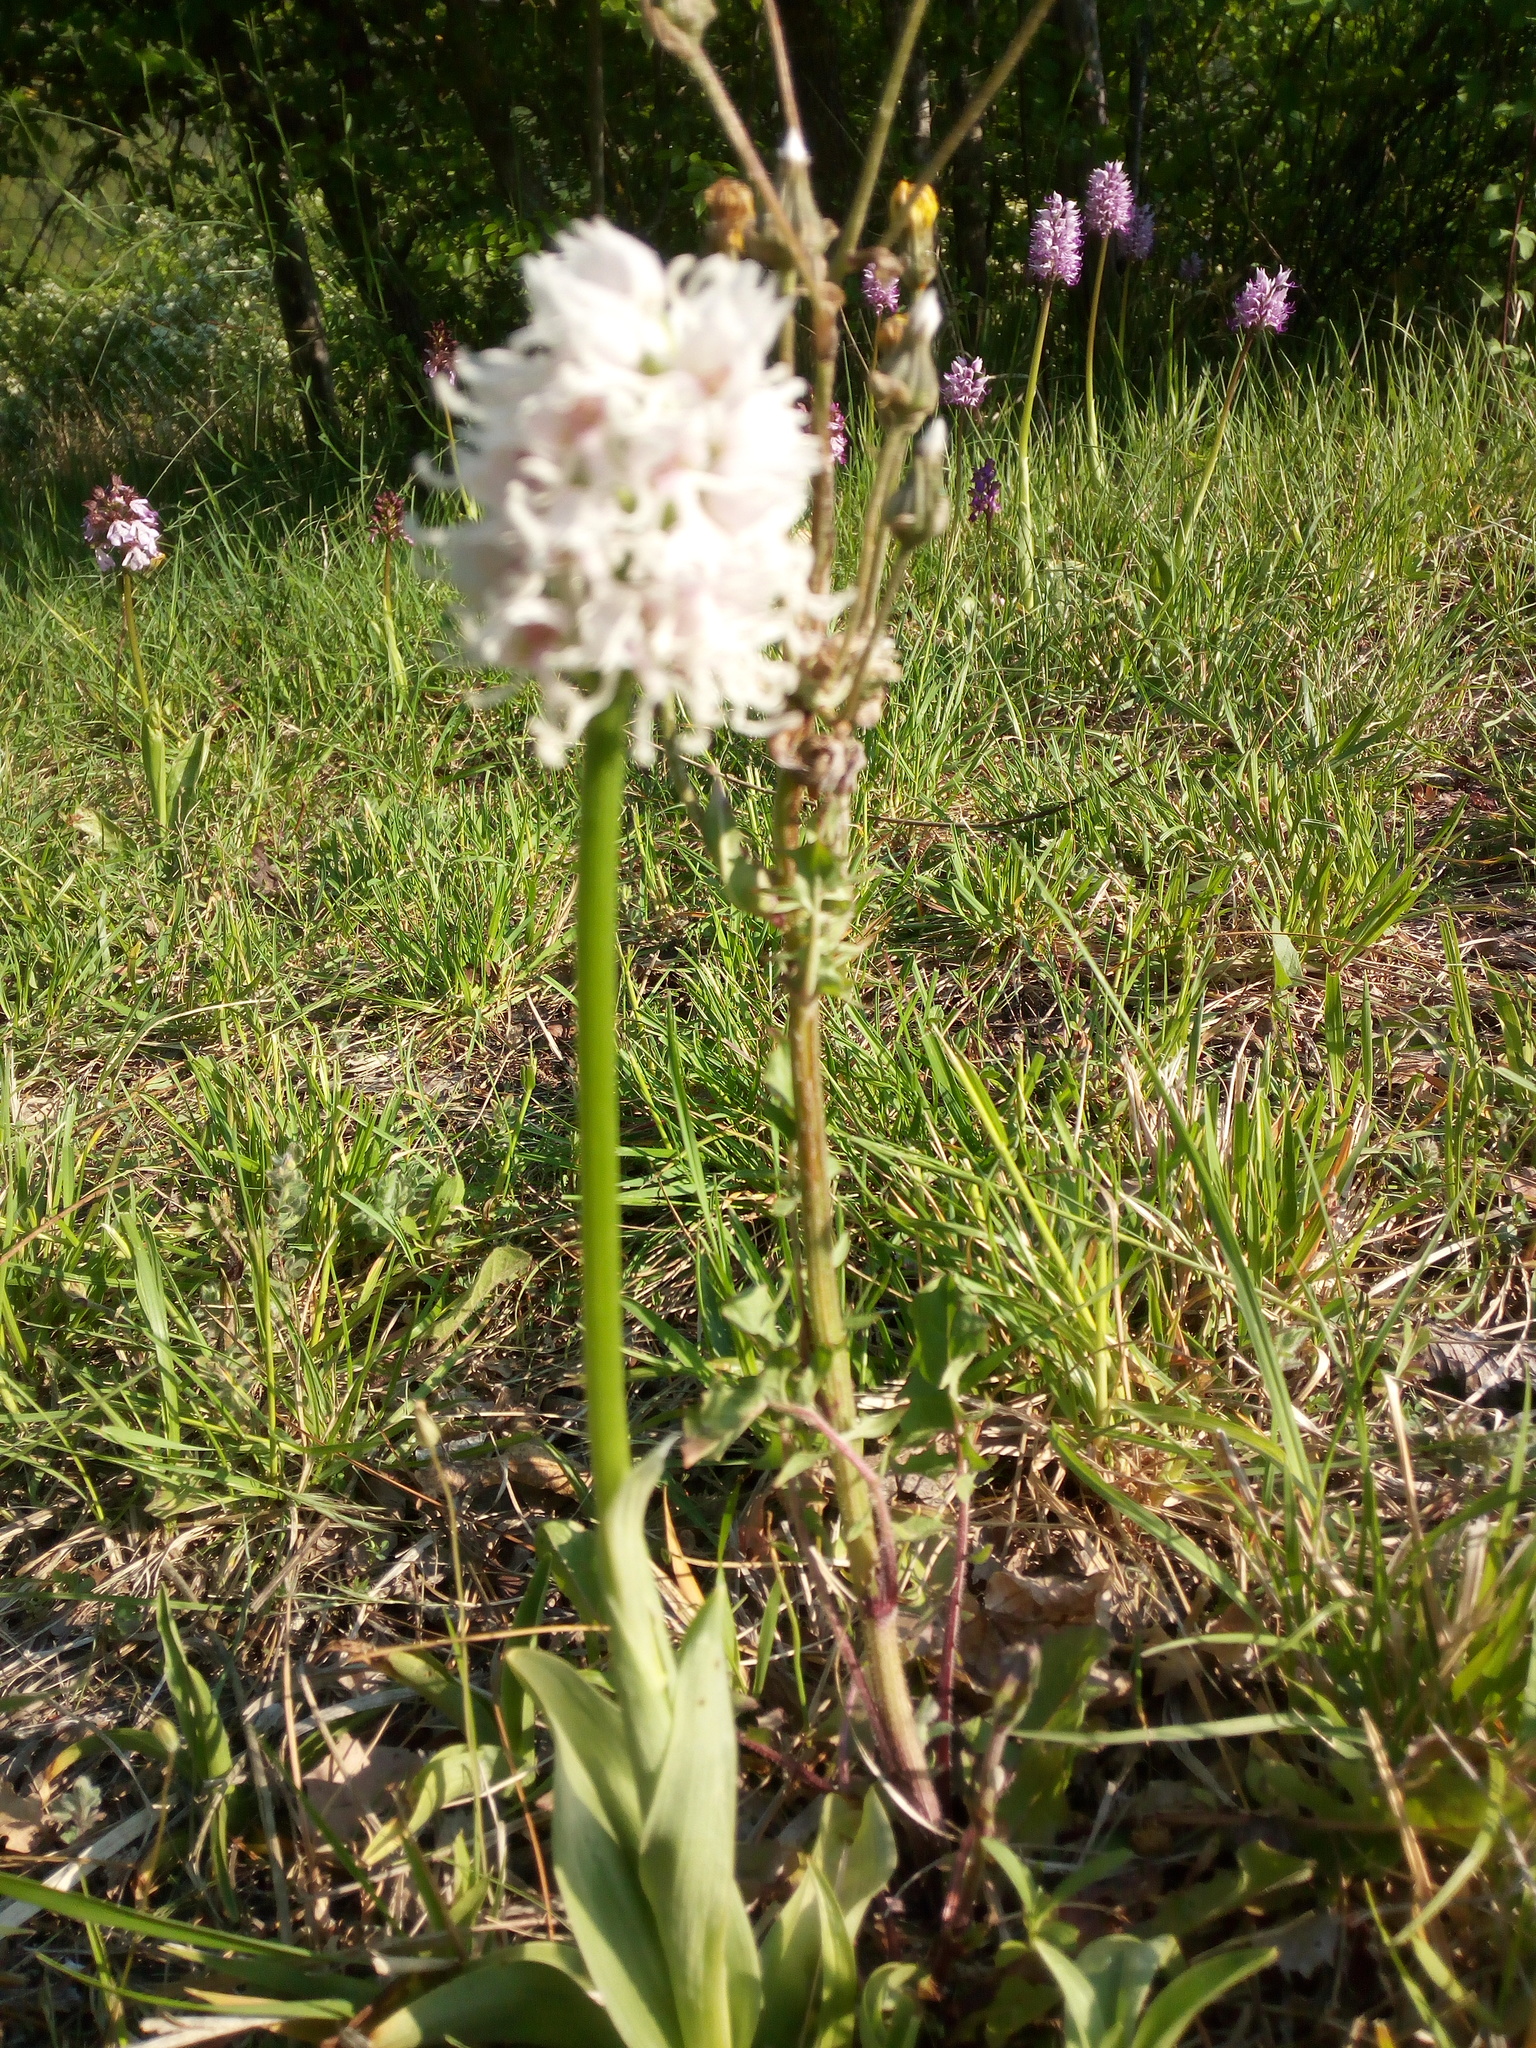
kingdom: Plantae
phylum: Tracheophyta
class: Liliopsida
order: Asparagales
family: Orchidaceae
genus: Orchis
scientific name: Orchis simia
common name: Monkey orchid
